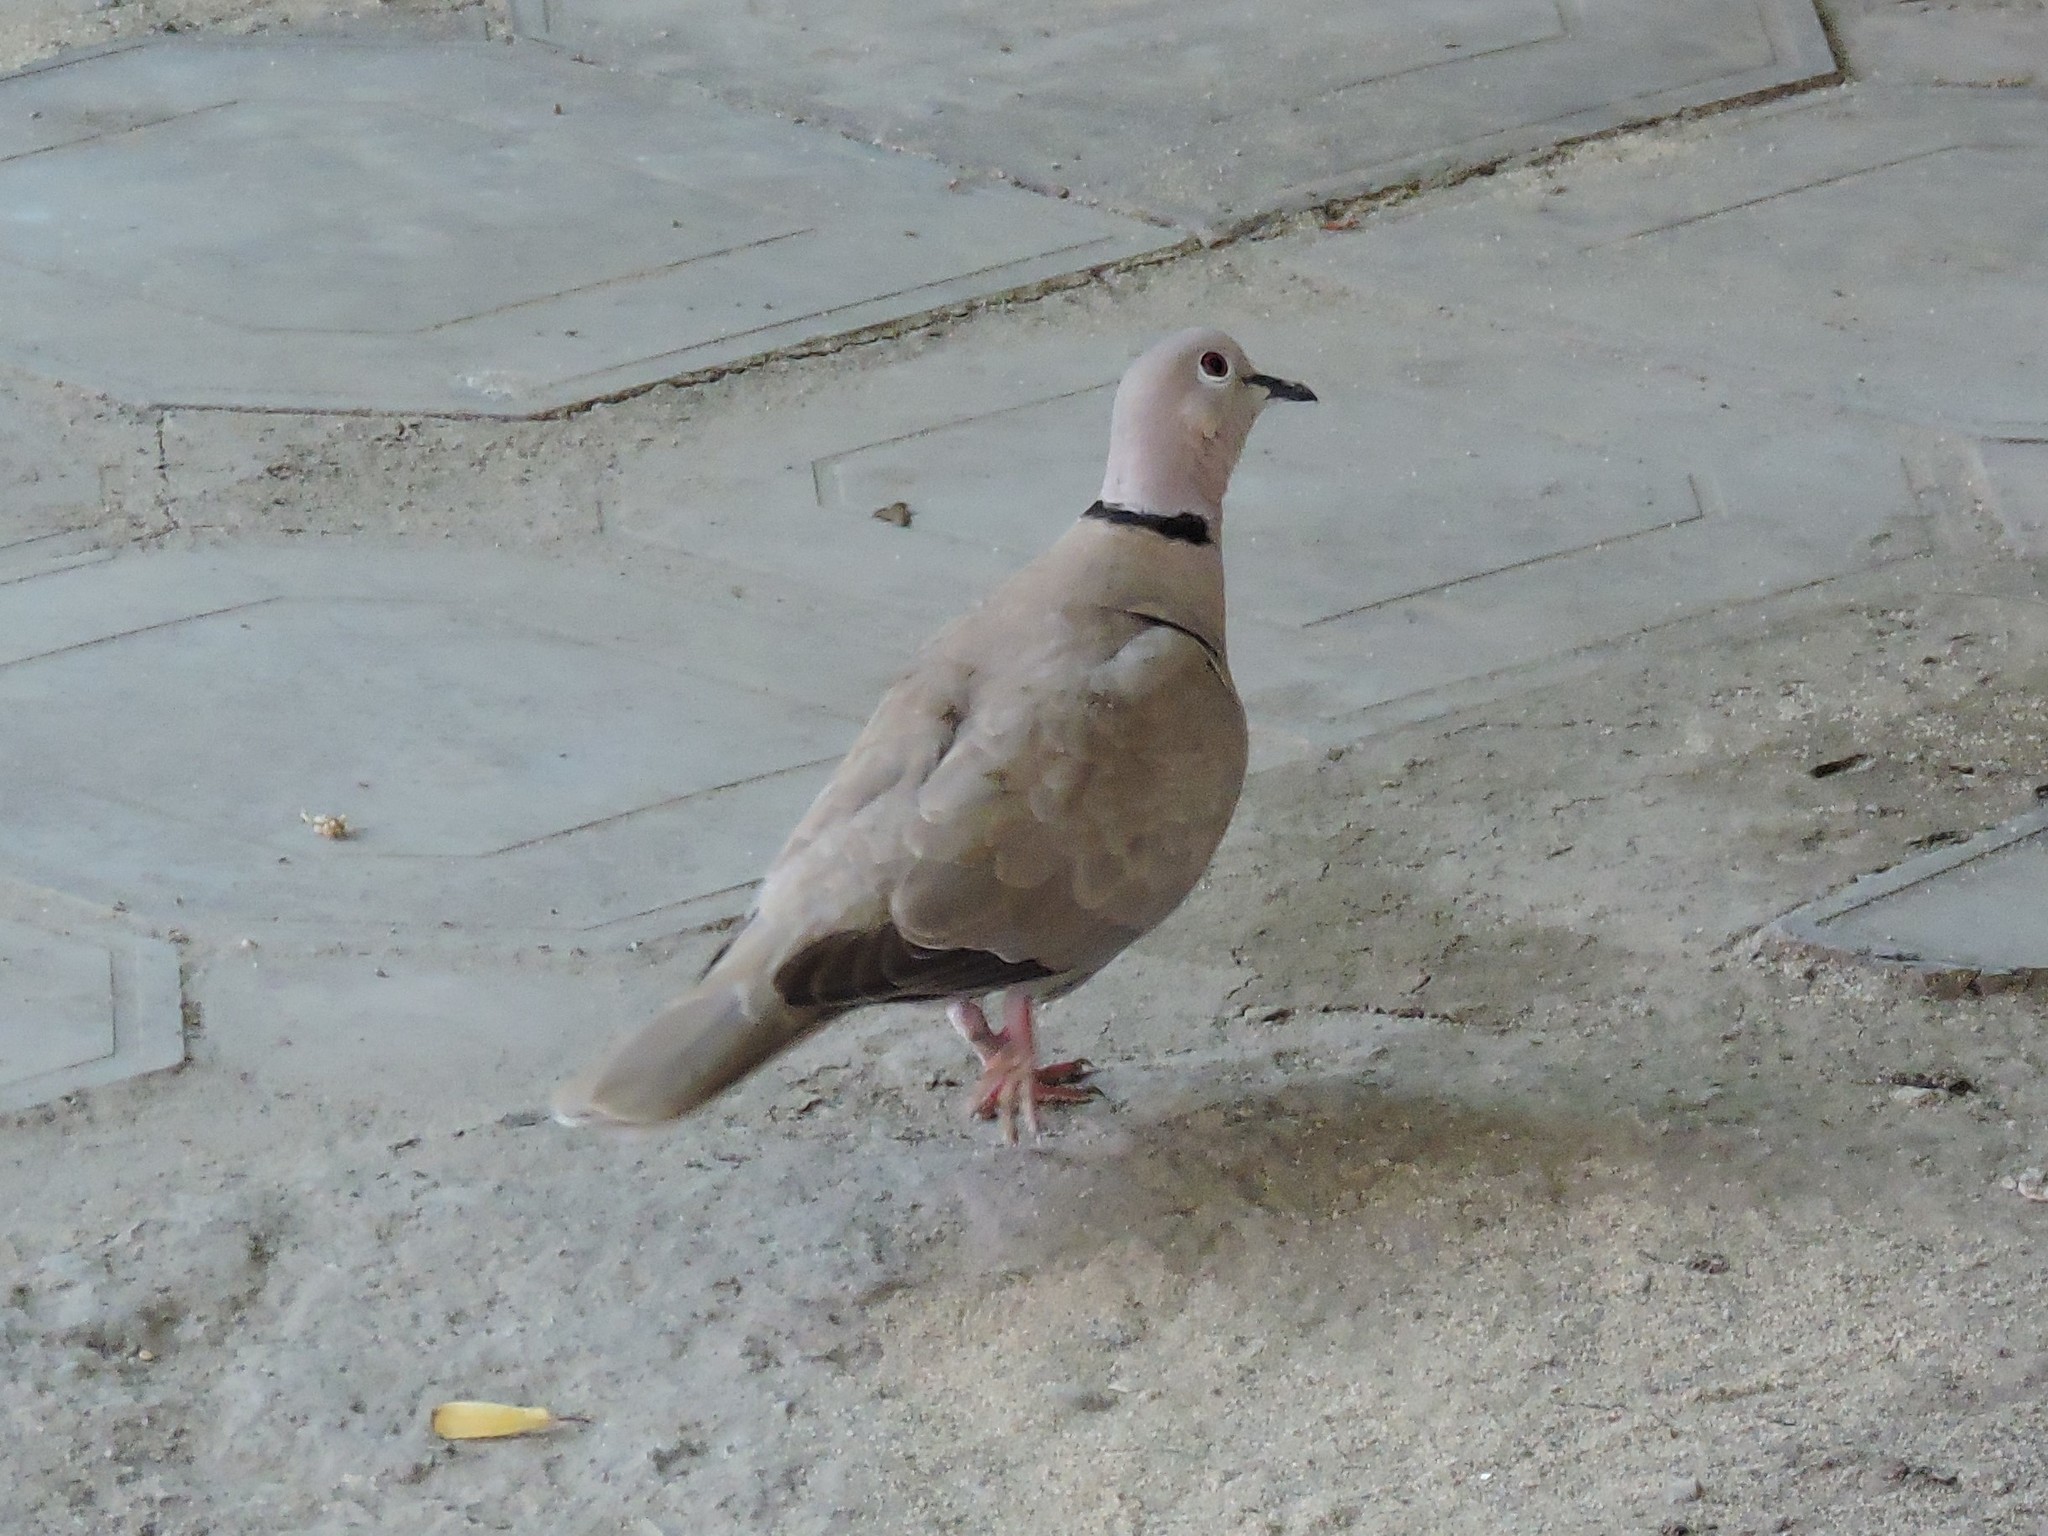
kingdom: Animalia
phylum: Chordata
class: Aves
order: Columbiformes
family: Columbidae
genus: Streptopelia
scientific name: Streptopelia decaocto
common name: Eurasian collared dove
